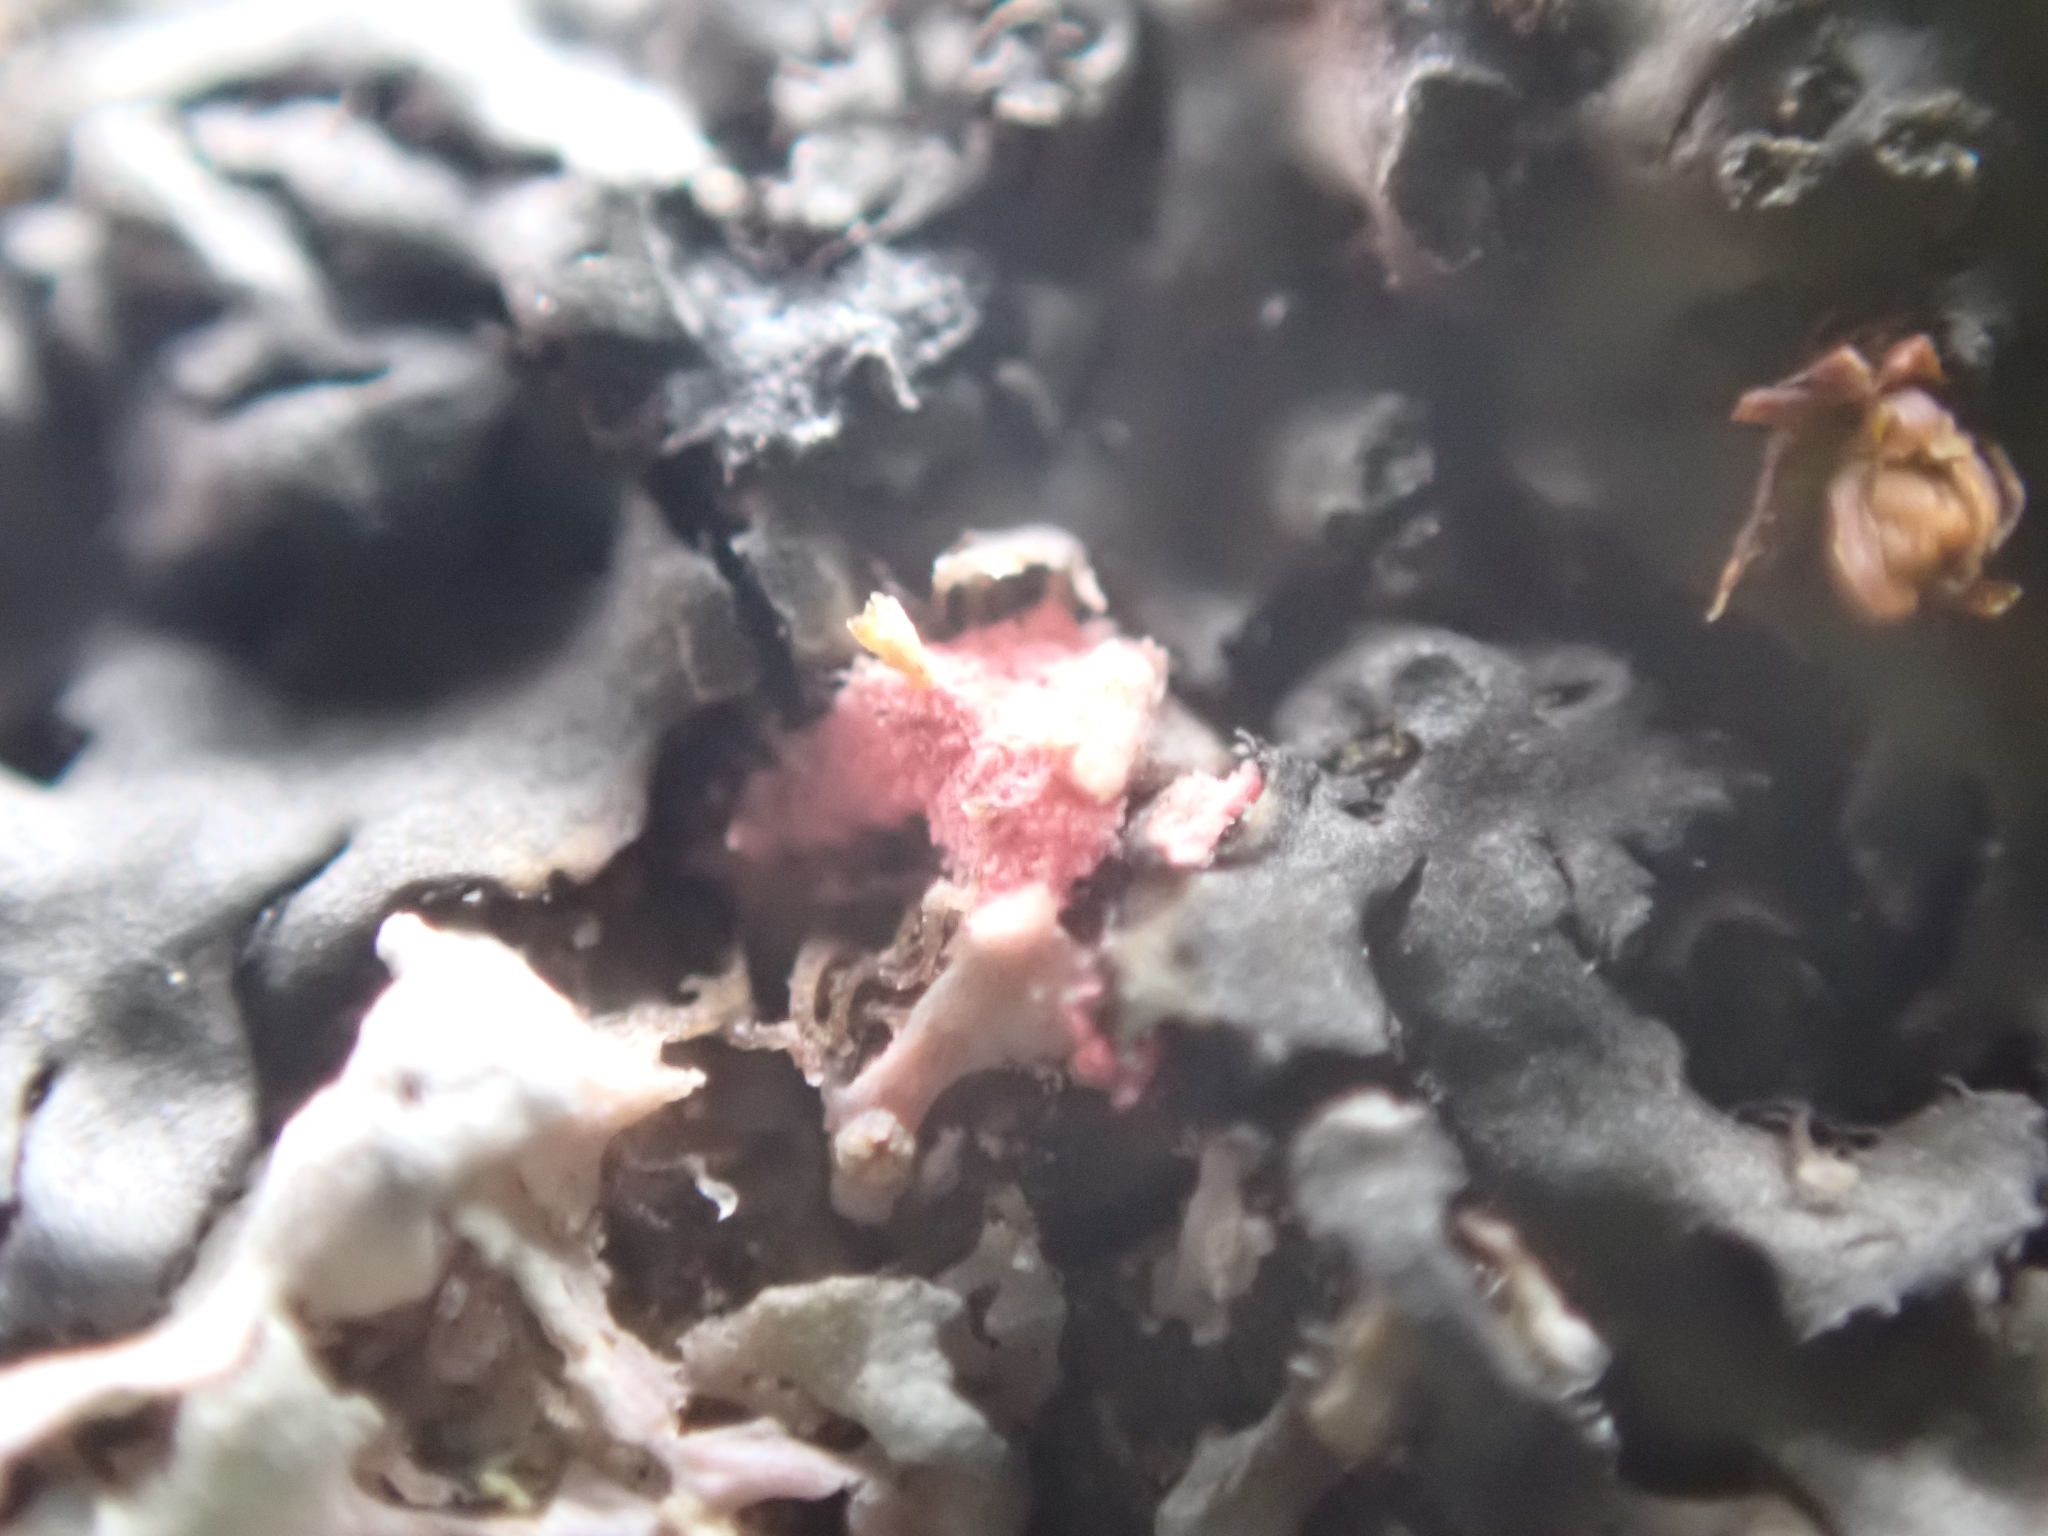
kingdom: Fungi
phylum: Ascomycota
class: Sordariomycetes
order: Hypocreales
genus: Illosporiopsis
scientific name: Illosporiopsis christiansenii
